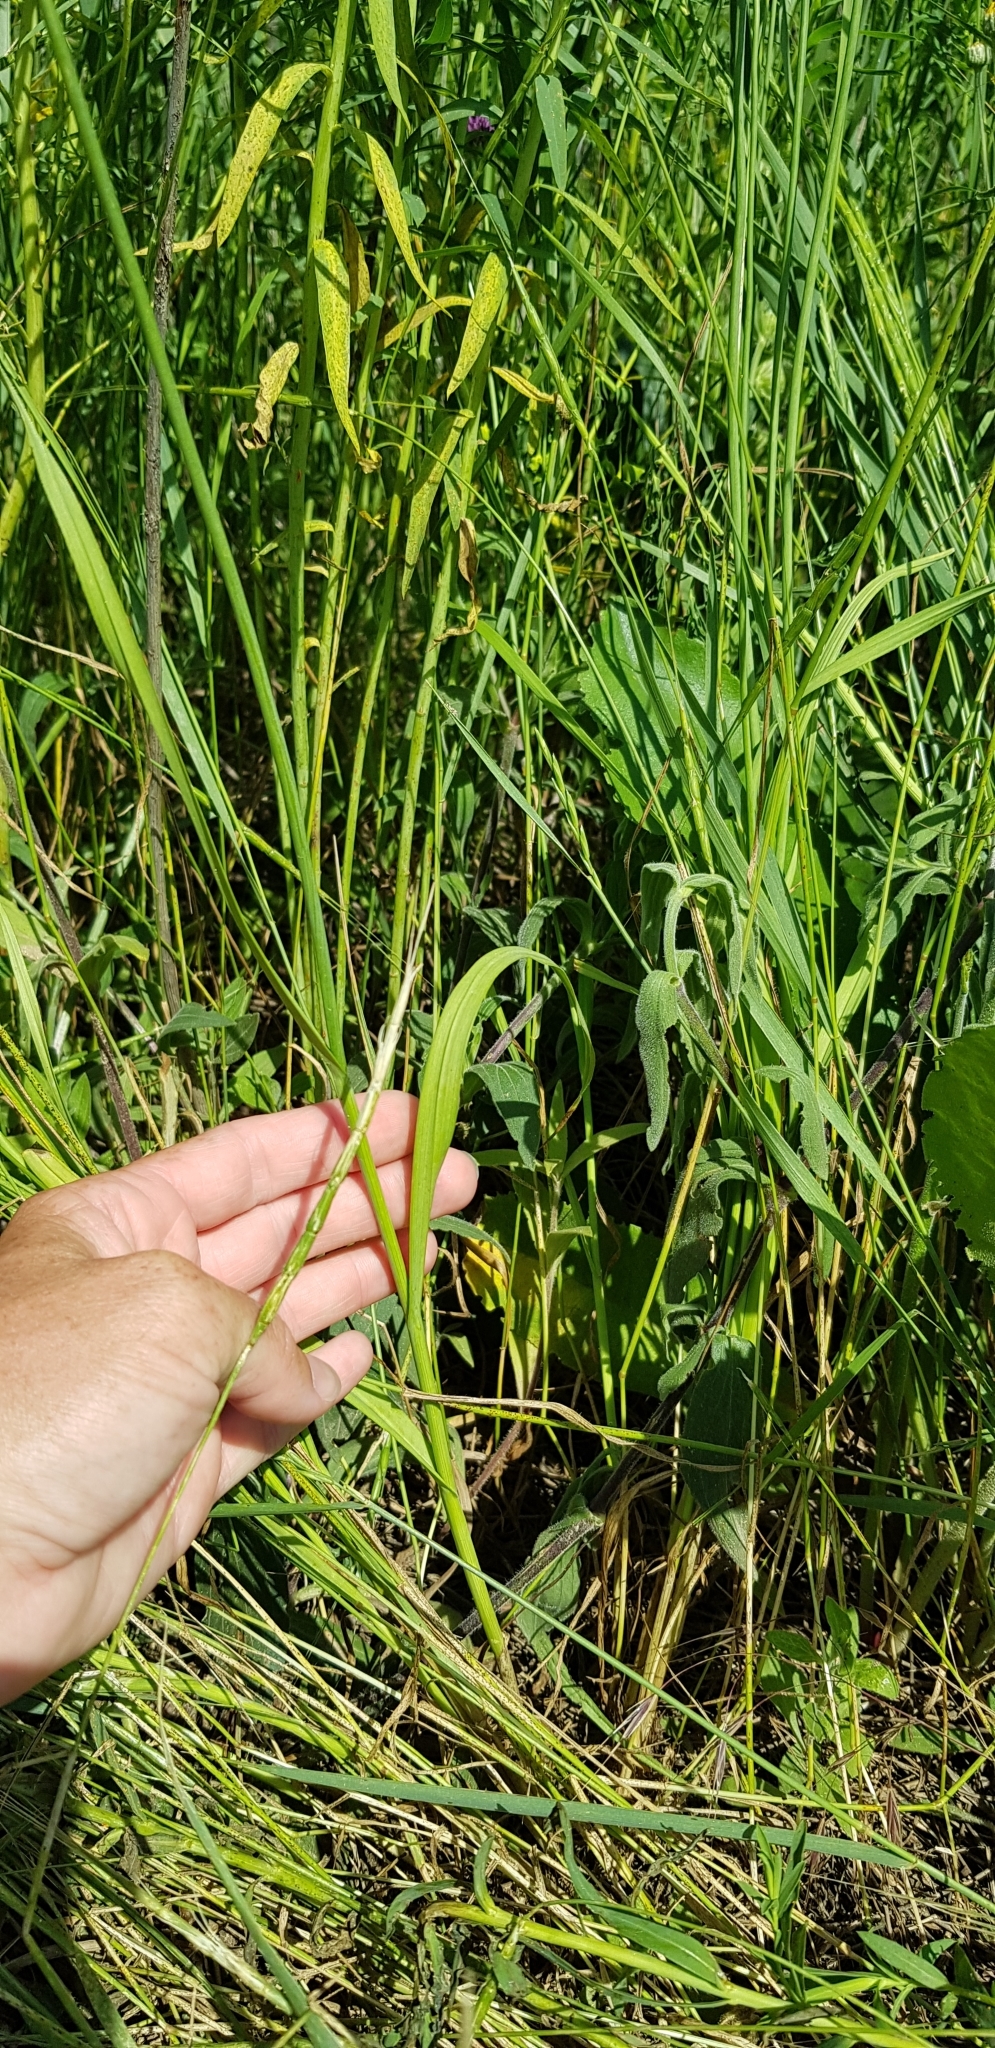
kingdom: Plantae
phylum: Tracheophyta
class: Liliopsida
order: Asparagales
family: Amaryllidaceae
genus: Allium
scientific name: Allium rotundum
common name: Sand leek
